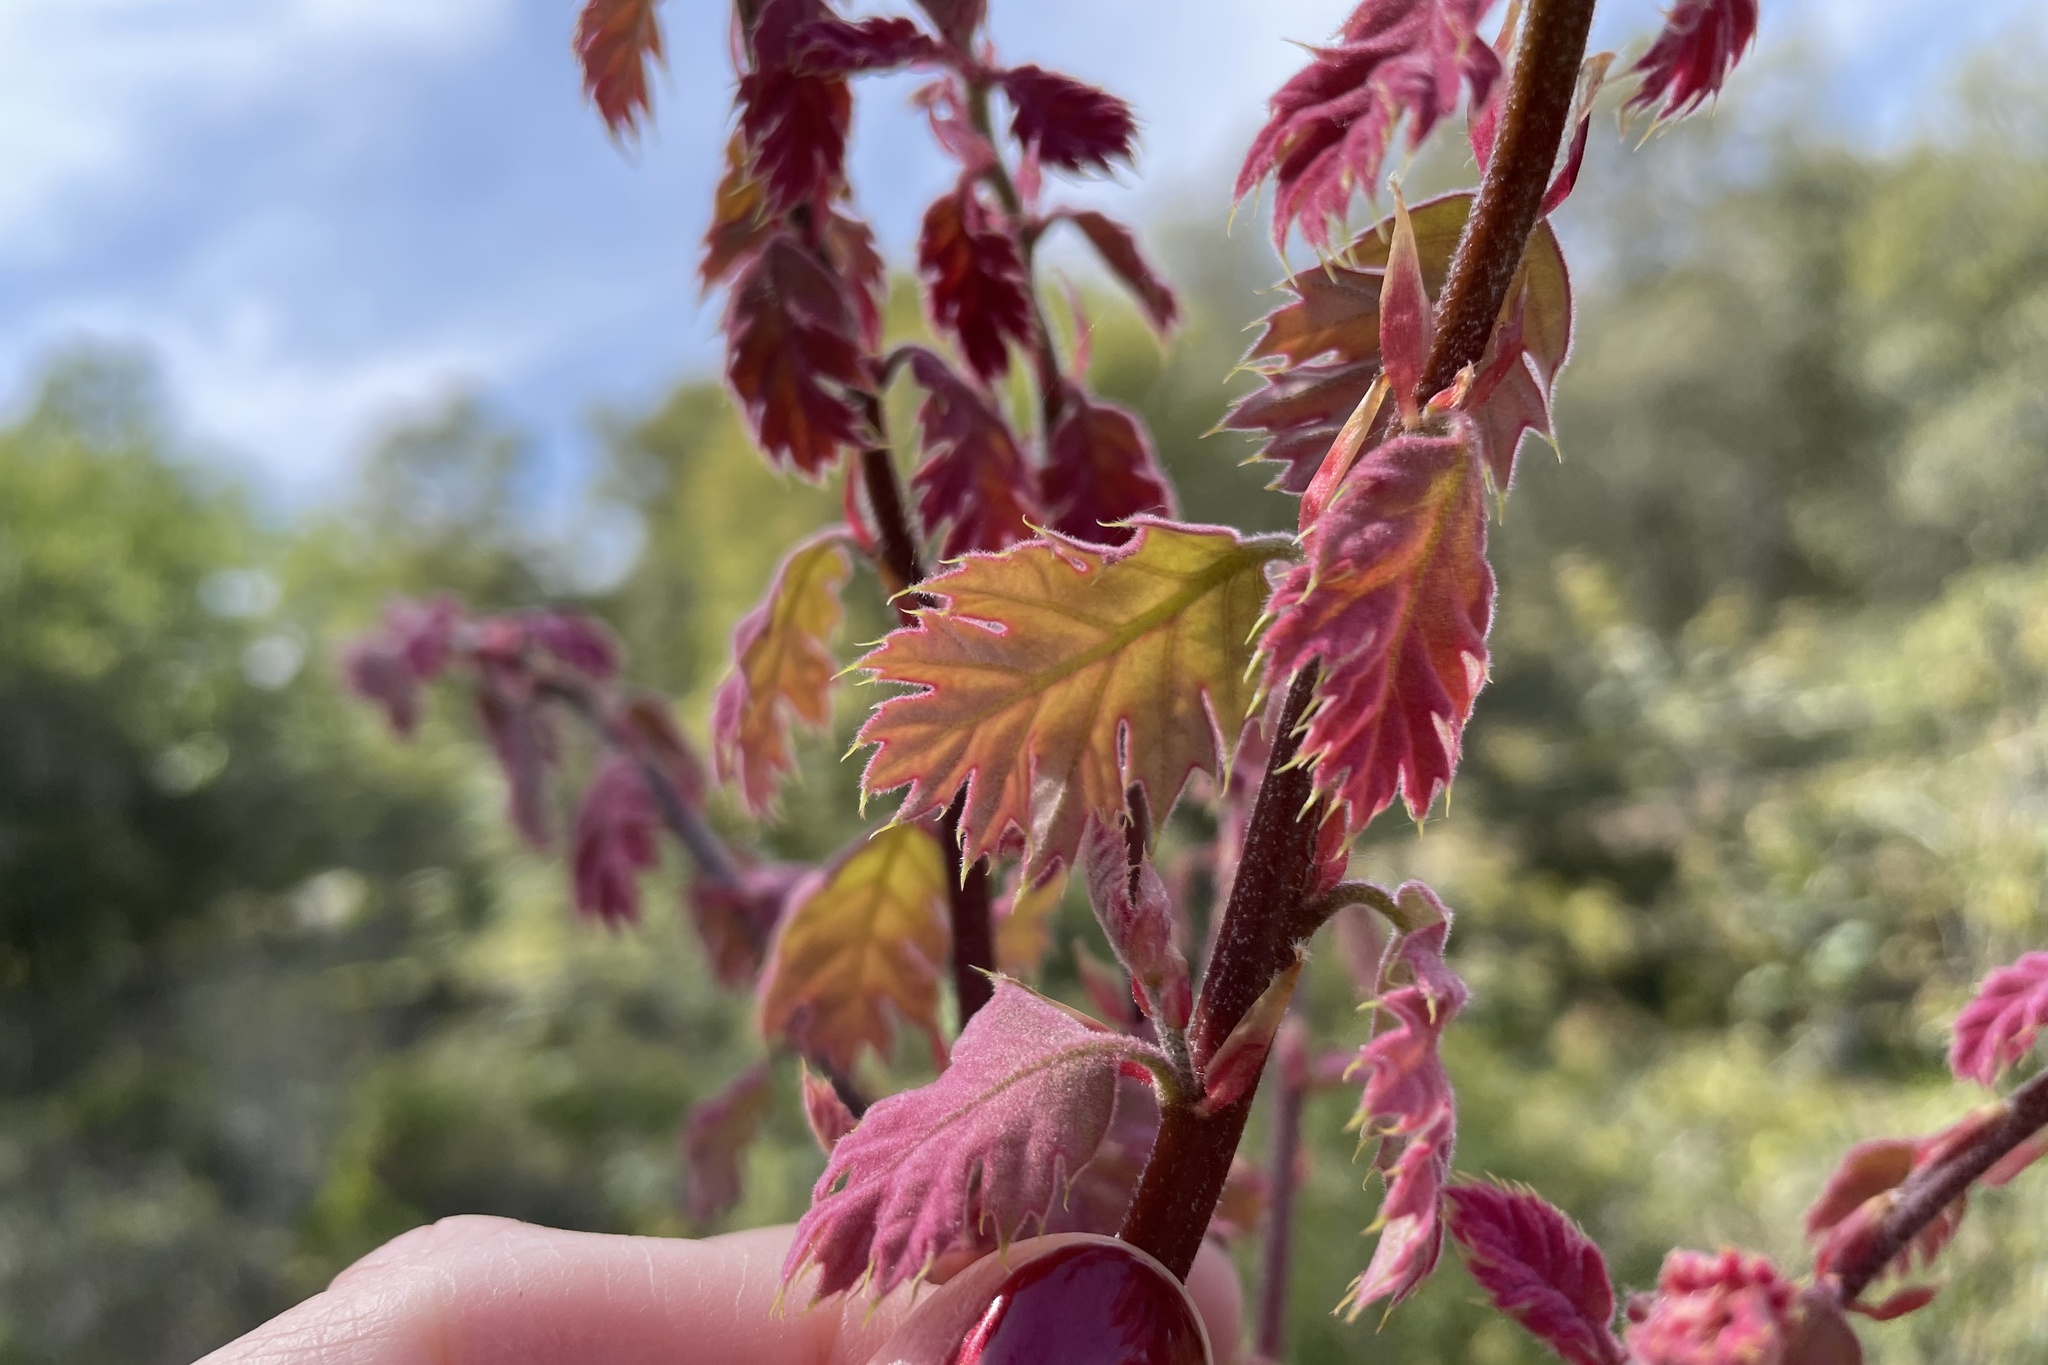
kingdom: Plantae
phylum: Tracheophyta
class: Magnoliopsida
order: Fagales
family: Fagaceae
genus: Quercus
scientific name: Quercus kelloggii
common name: California black oak
